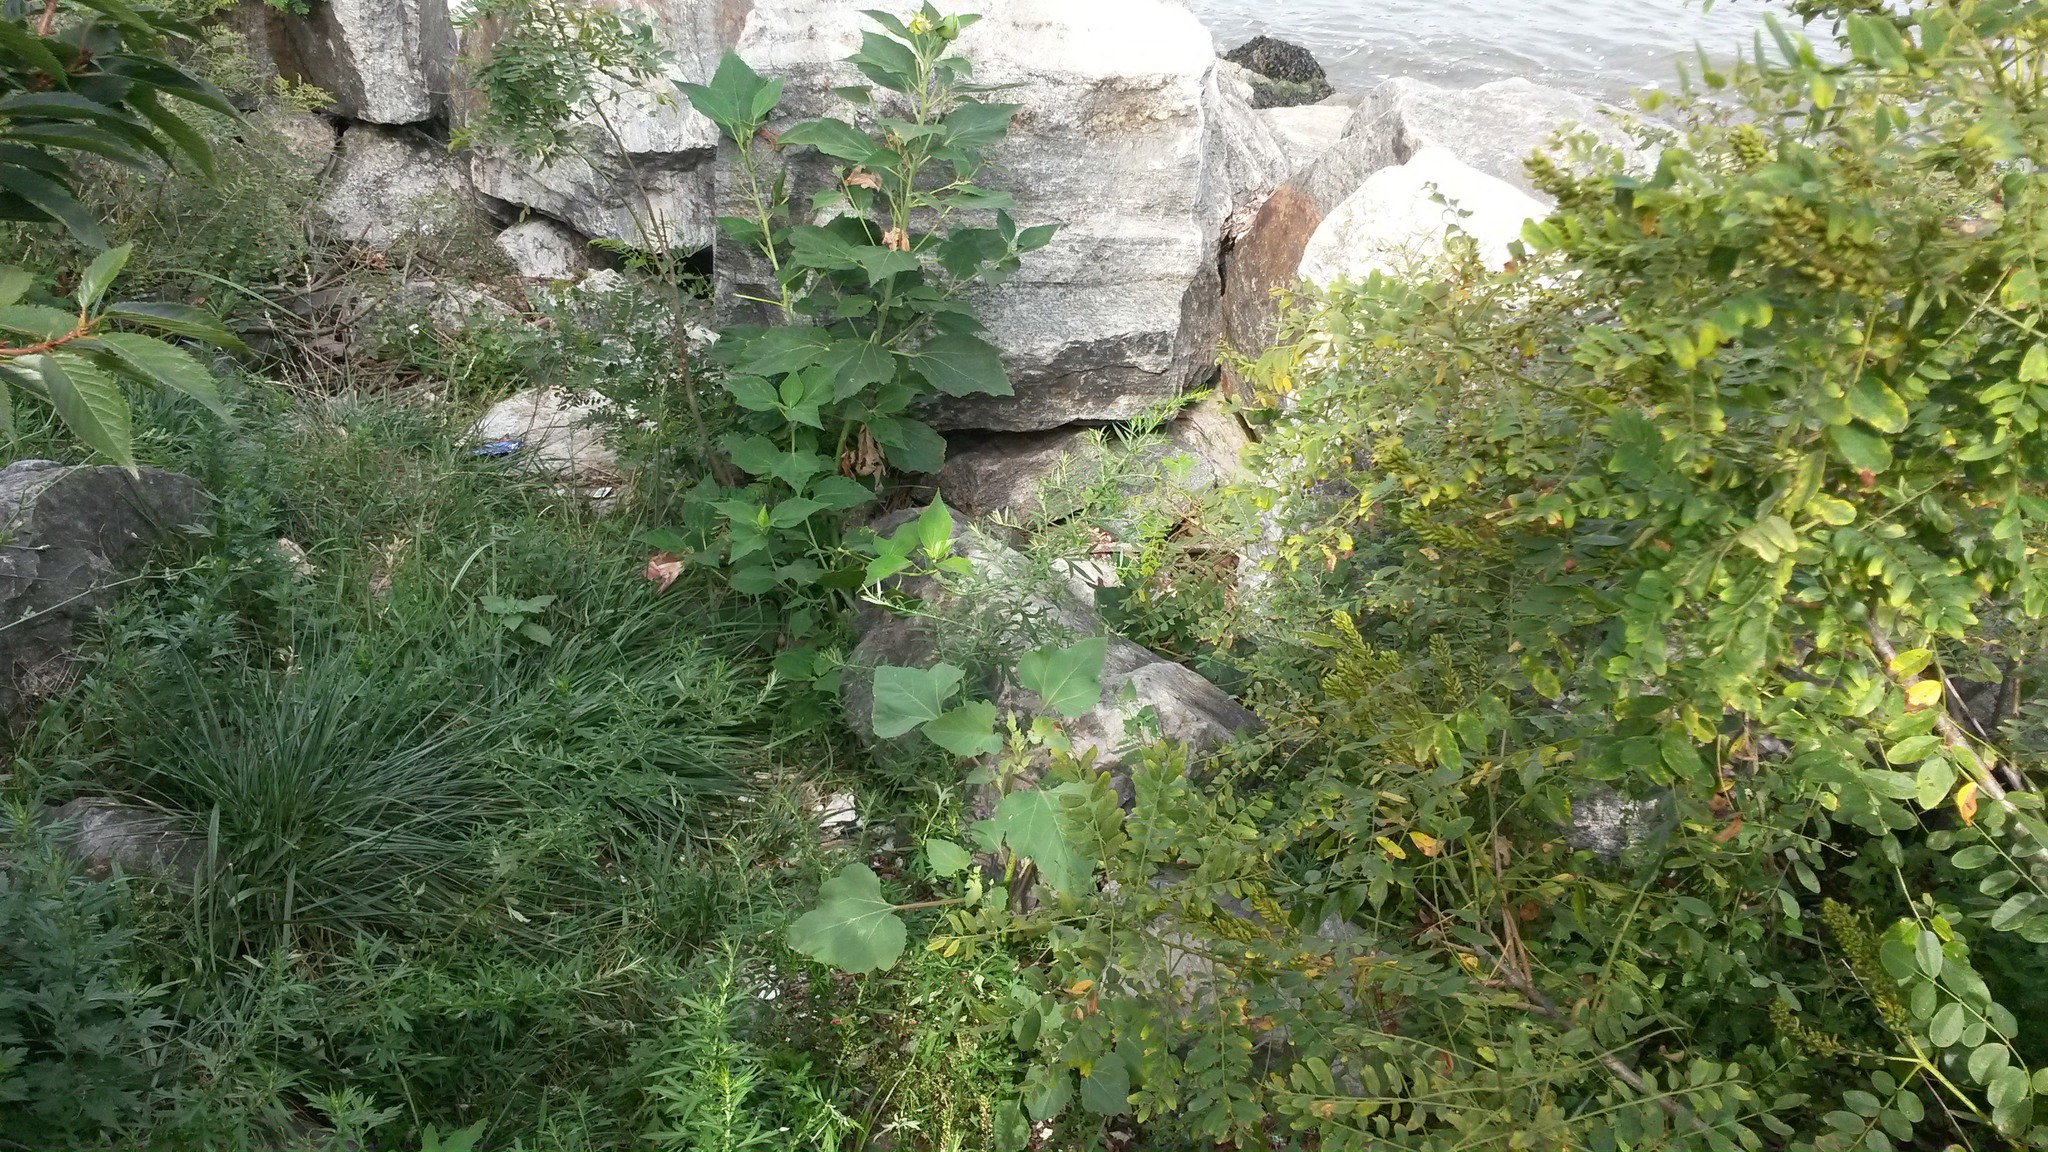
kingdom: Plantae
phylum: Tracheophyta
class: Magnoliopsida
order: Malvales
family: Malvaceae
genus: Hibiscus
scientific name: Hibiscus moscheutos
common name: Common rose-mallow
